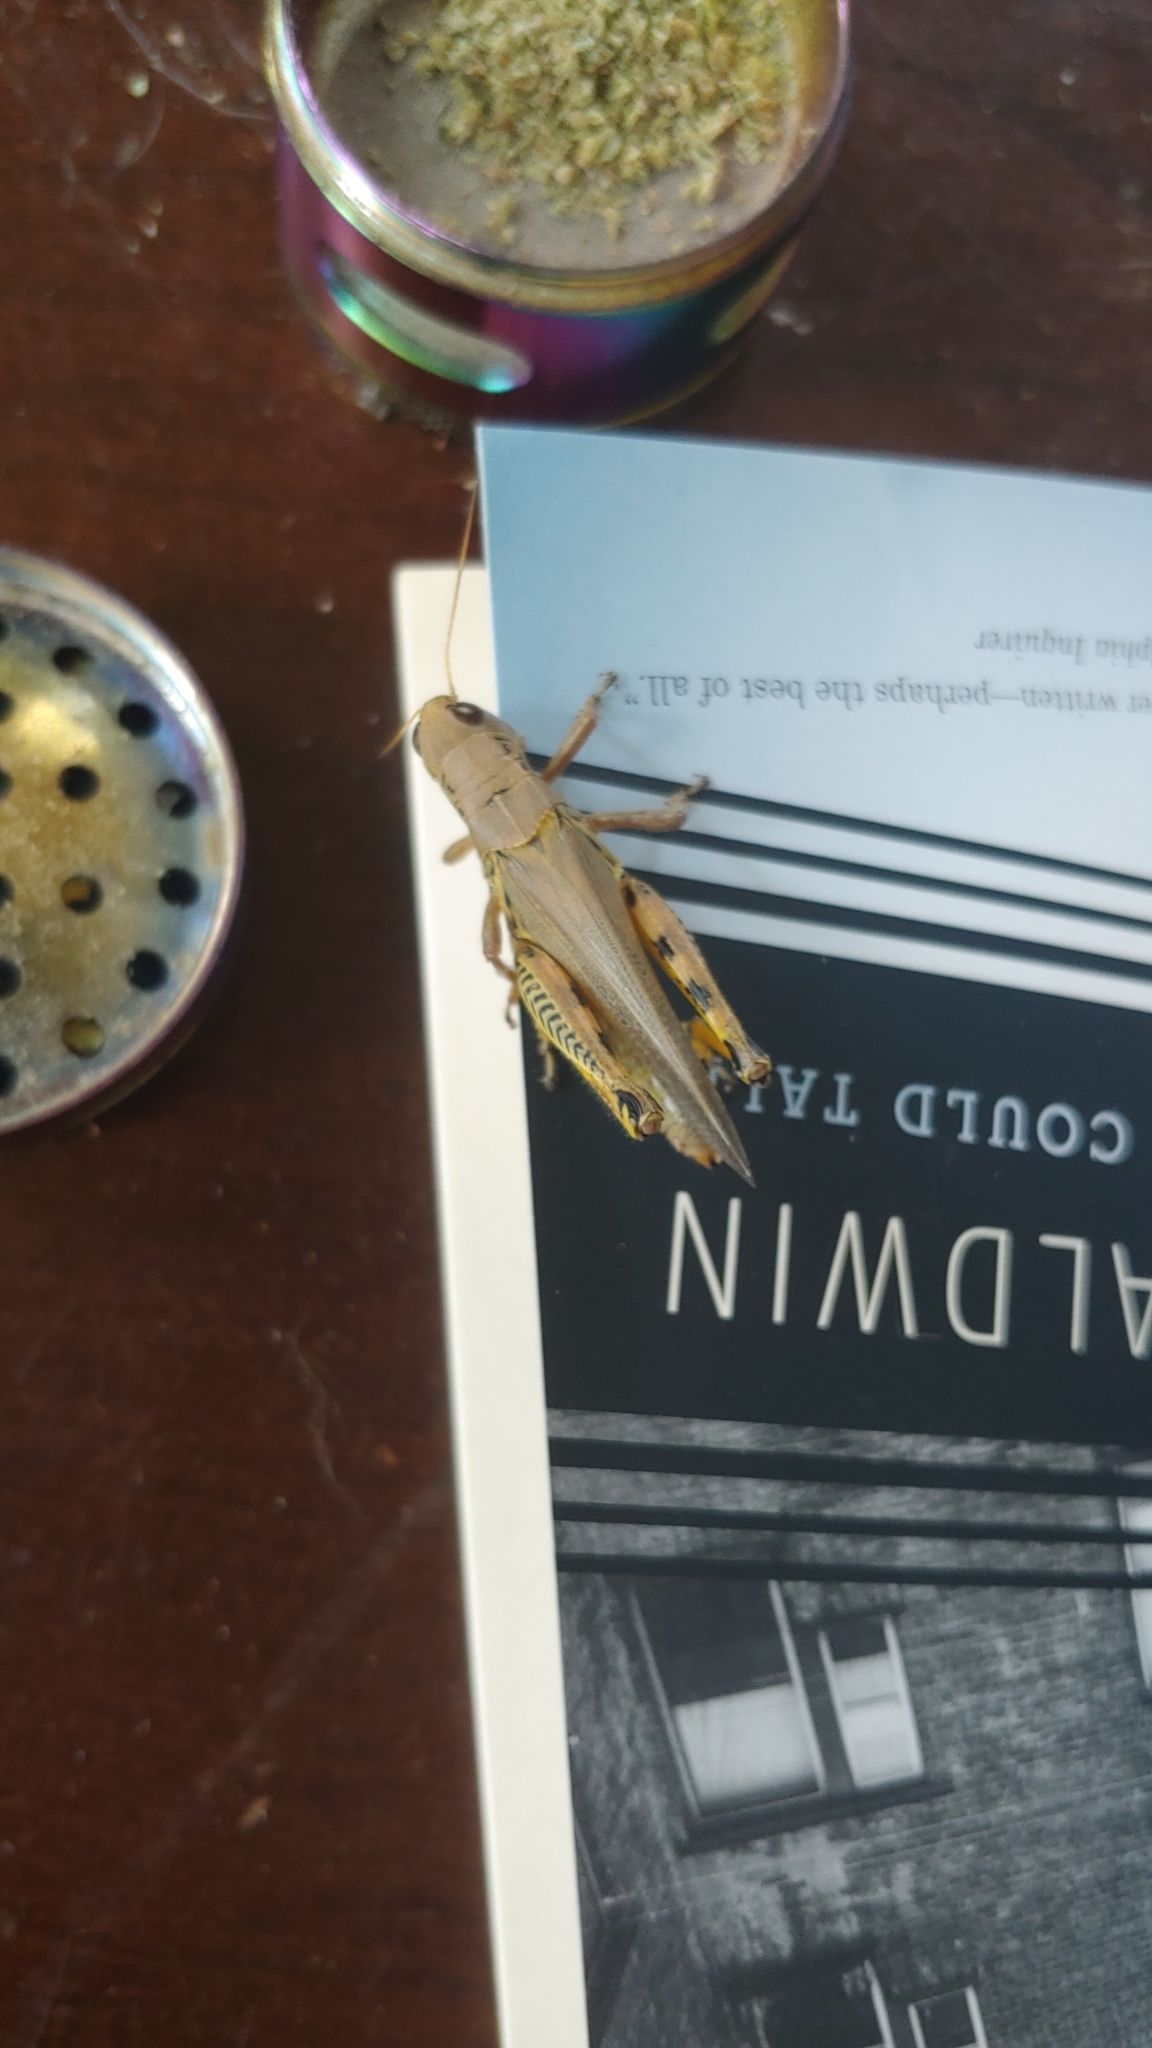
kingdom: Animalia
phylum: Arthropoda
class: Insecta
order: Orthoptera
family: Acrididae
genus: Melanoplus
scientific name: Melanoplus differentialis
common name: Differential grasshopper
